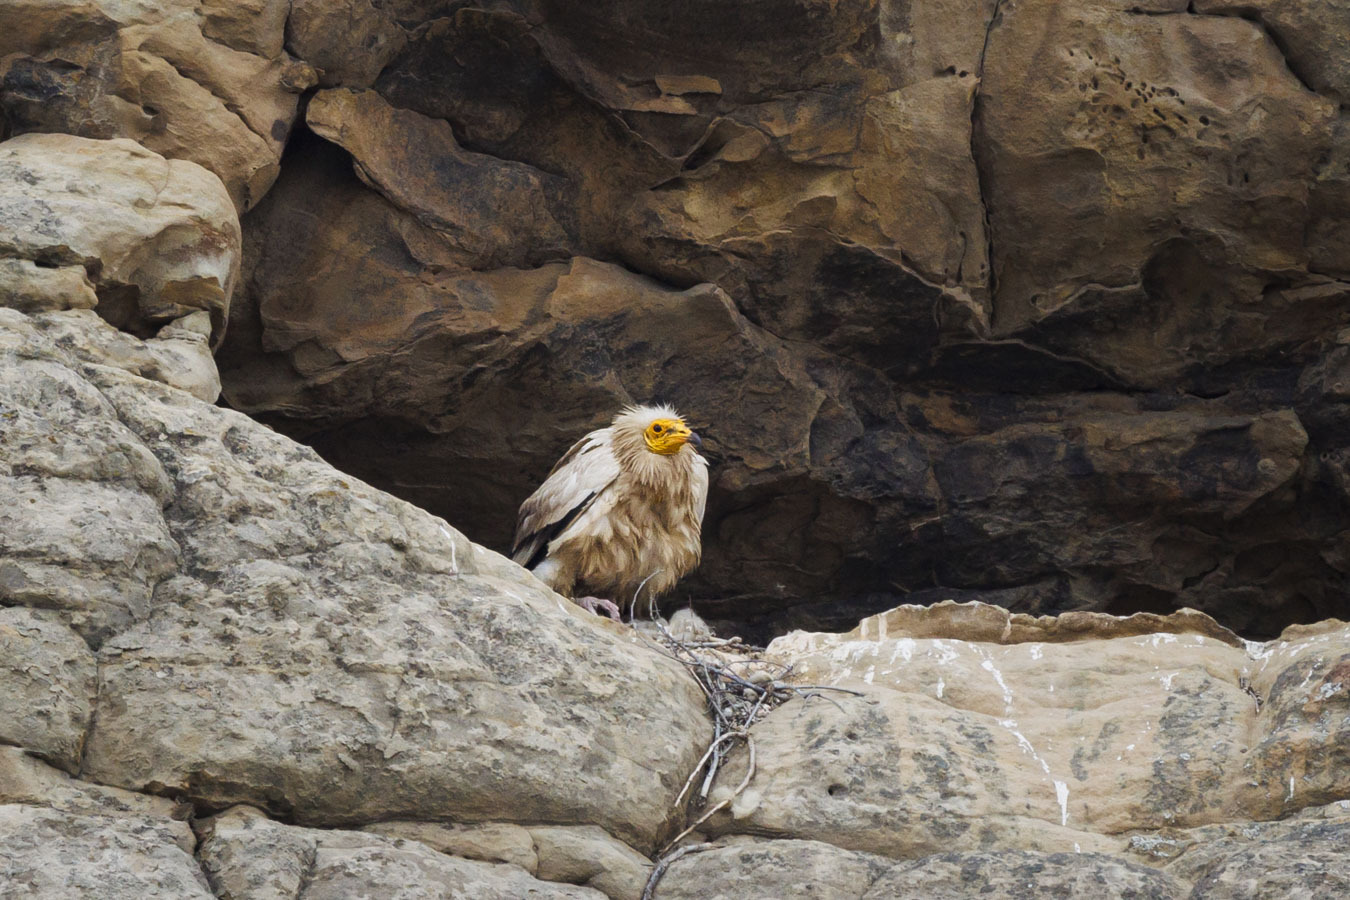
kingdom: Animalia
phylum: Chordata
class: Aves
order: Accipitriformes
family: Accipitridae
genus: Neophron
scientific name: Neophron percnopterus
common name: Egyptian vulture
